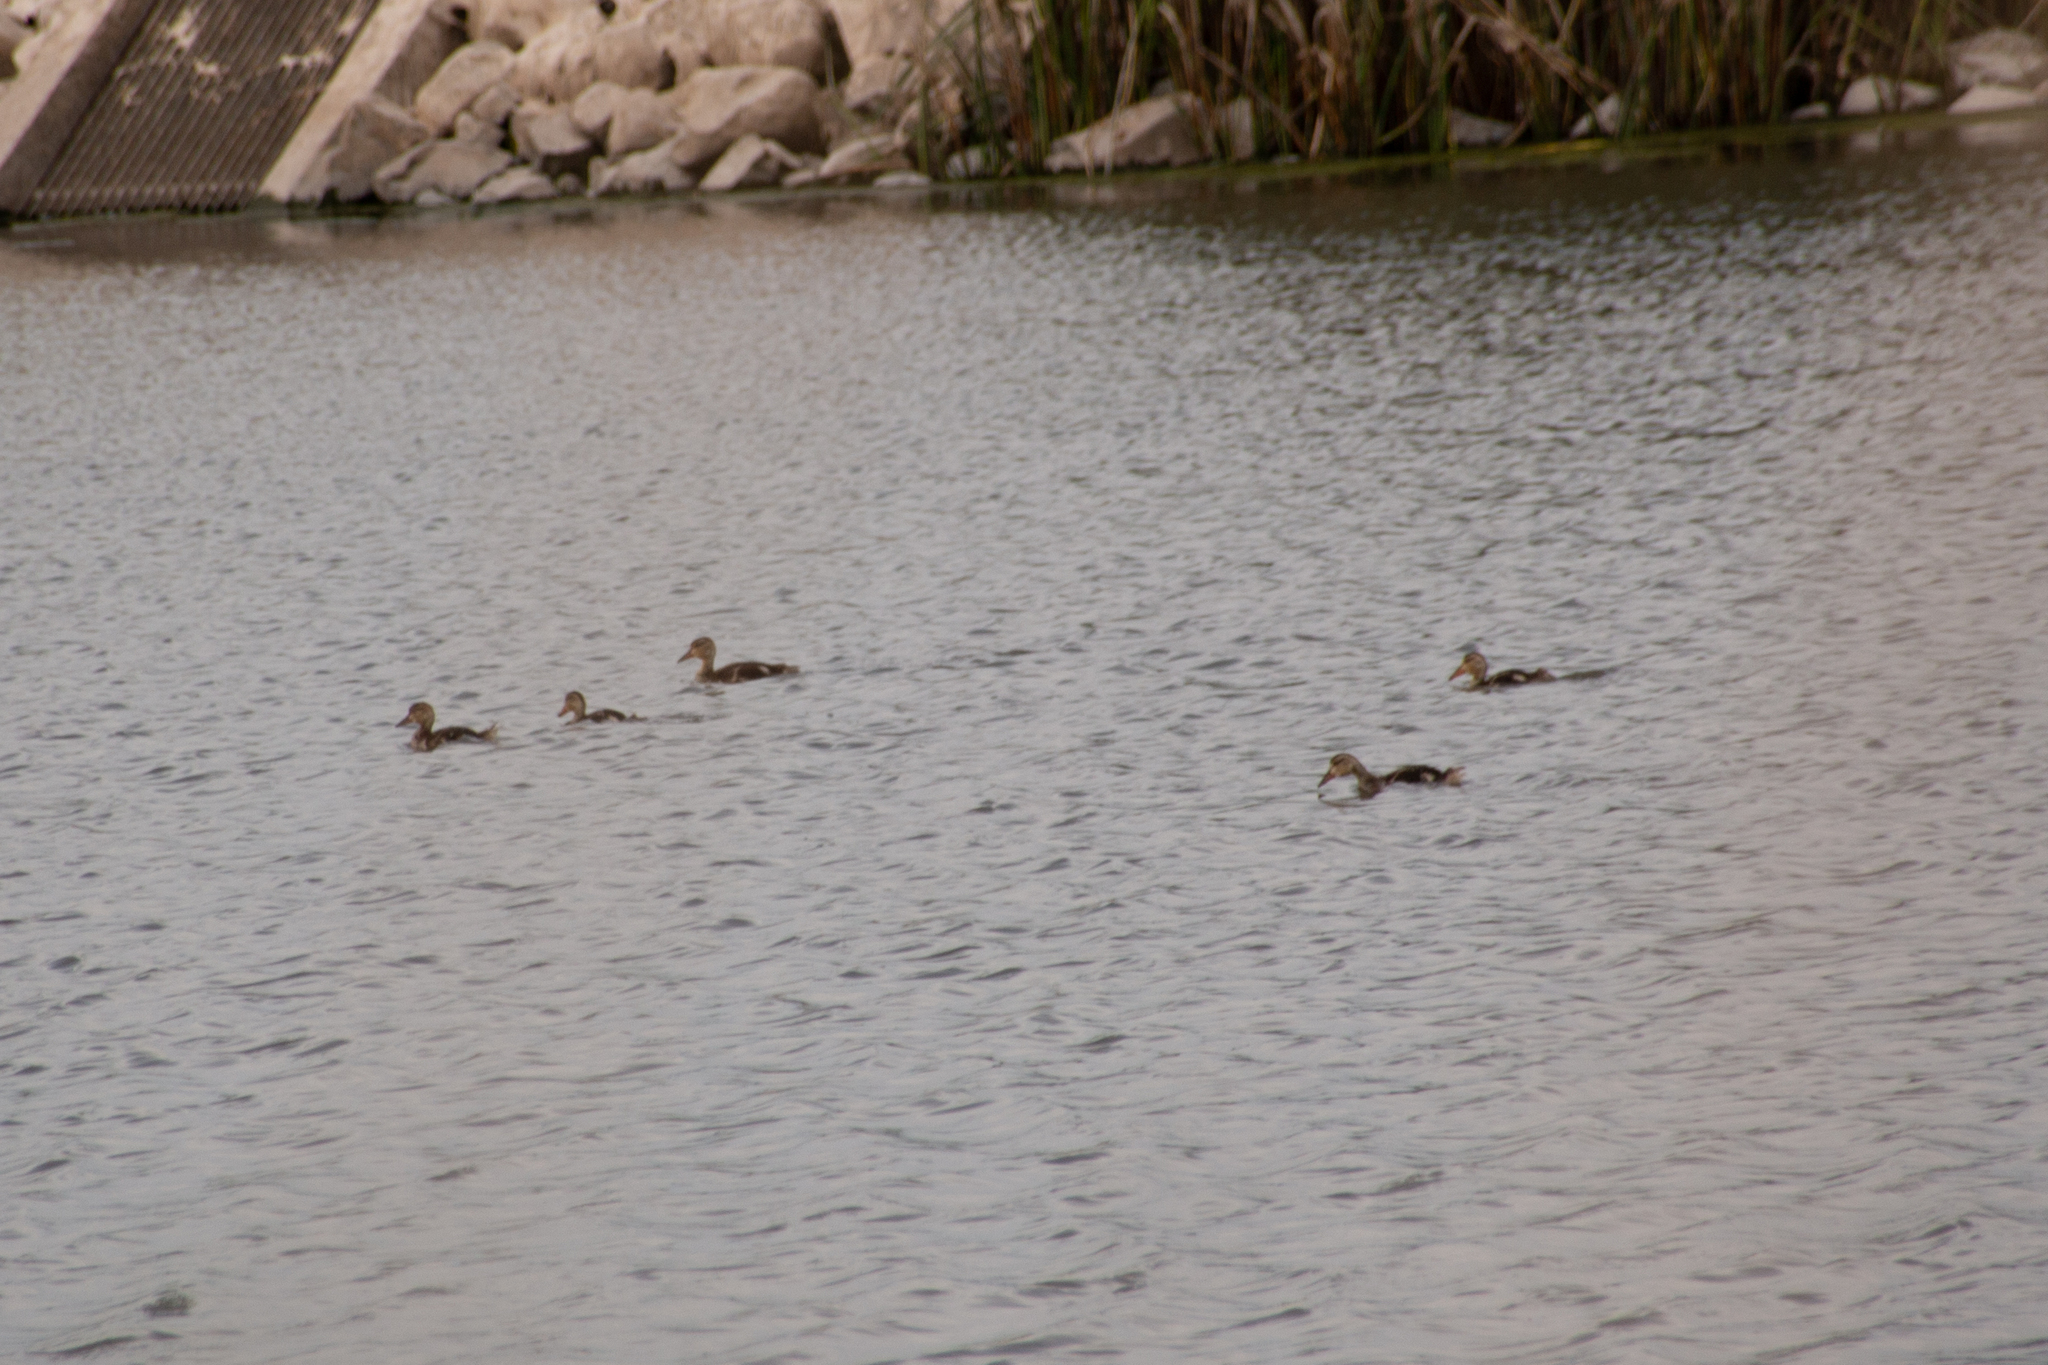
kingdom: Animalia
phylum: Chordata
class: Aves
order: Anseriformes
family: Anatidae
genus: Anas
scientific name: Anas platyrhynchos
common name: Mallard
